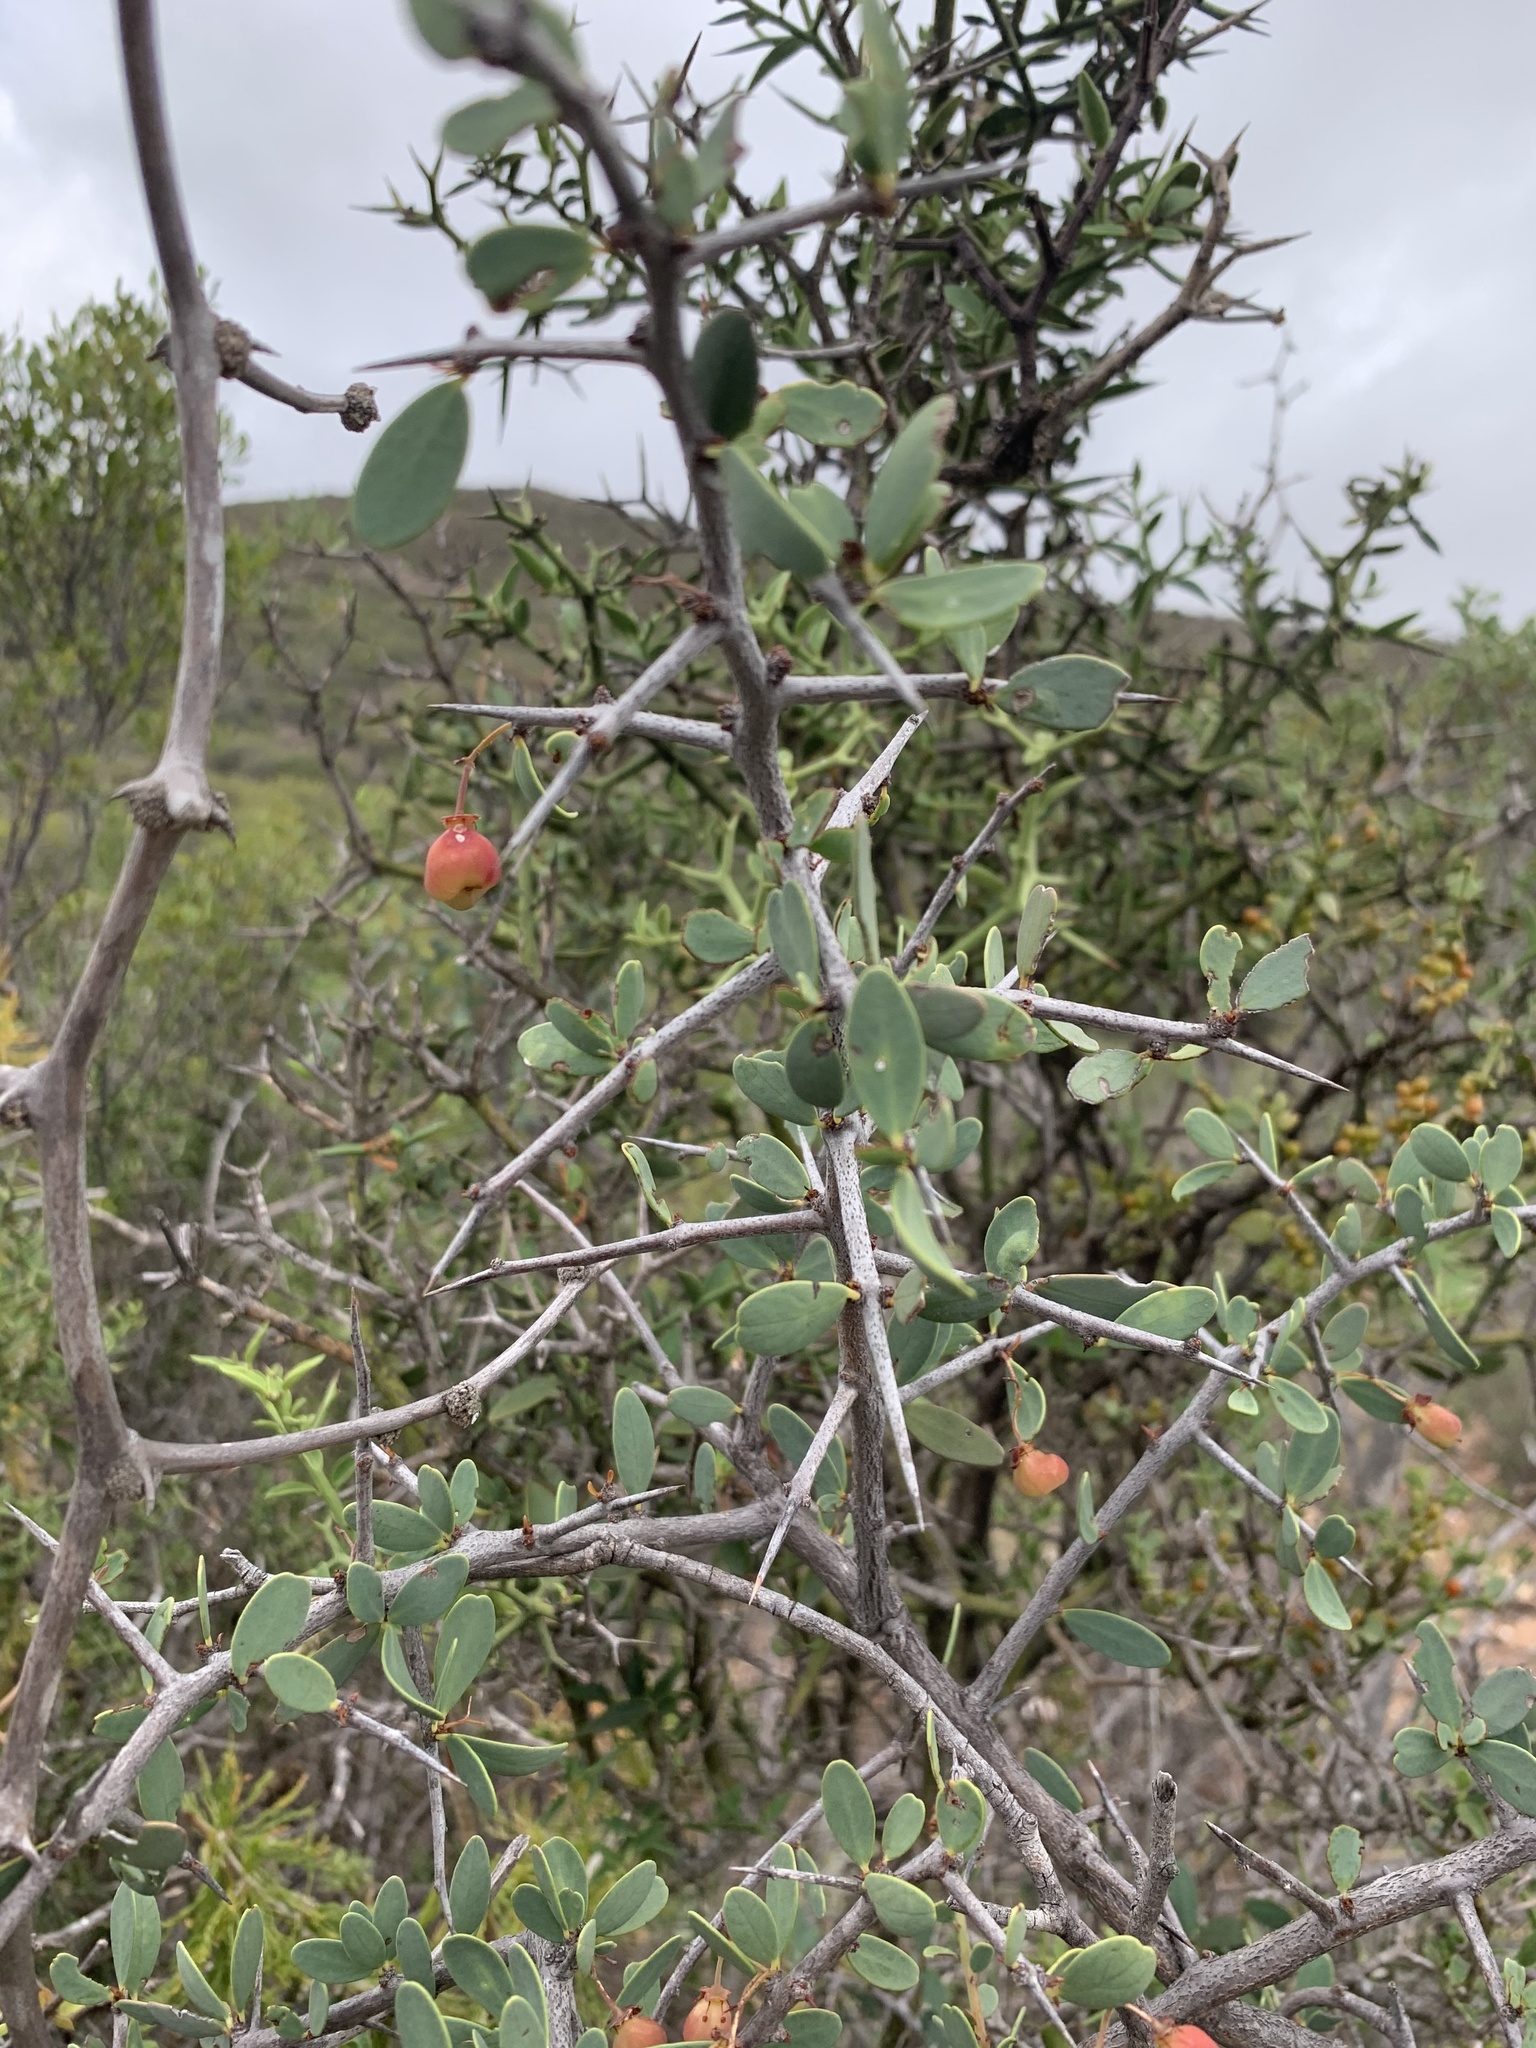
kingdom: Plantae
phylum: Tracheophyta
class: Magnoliopsida
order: Celastrales
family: Celastraceae
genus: Gloveria
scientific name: Gloveria integrifolia
